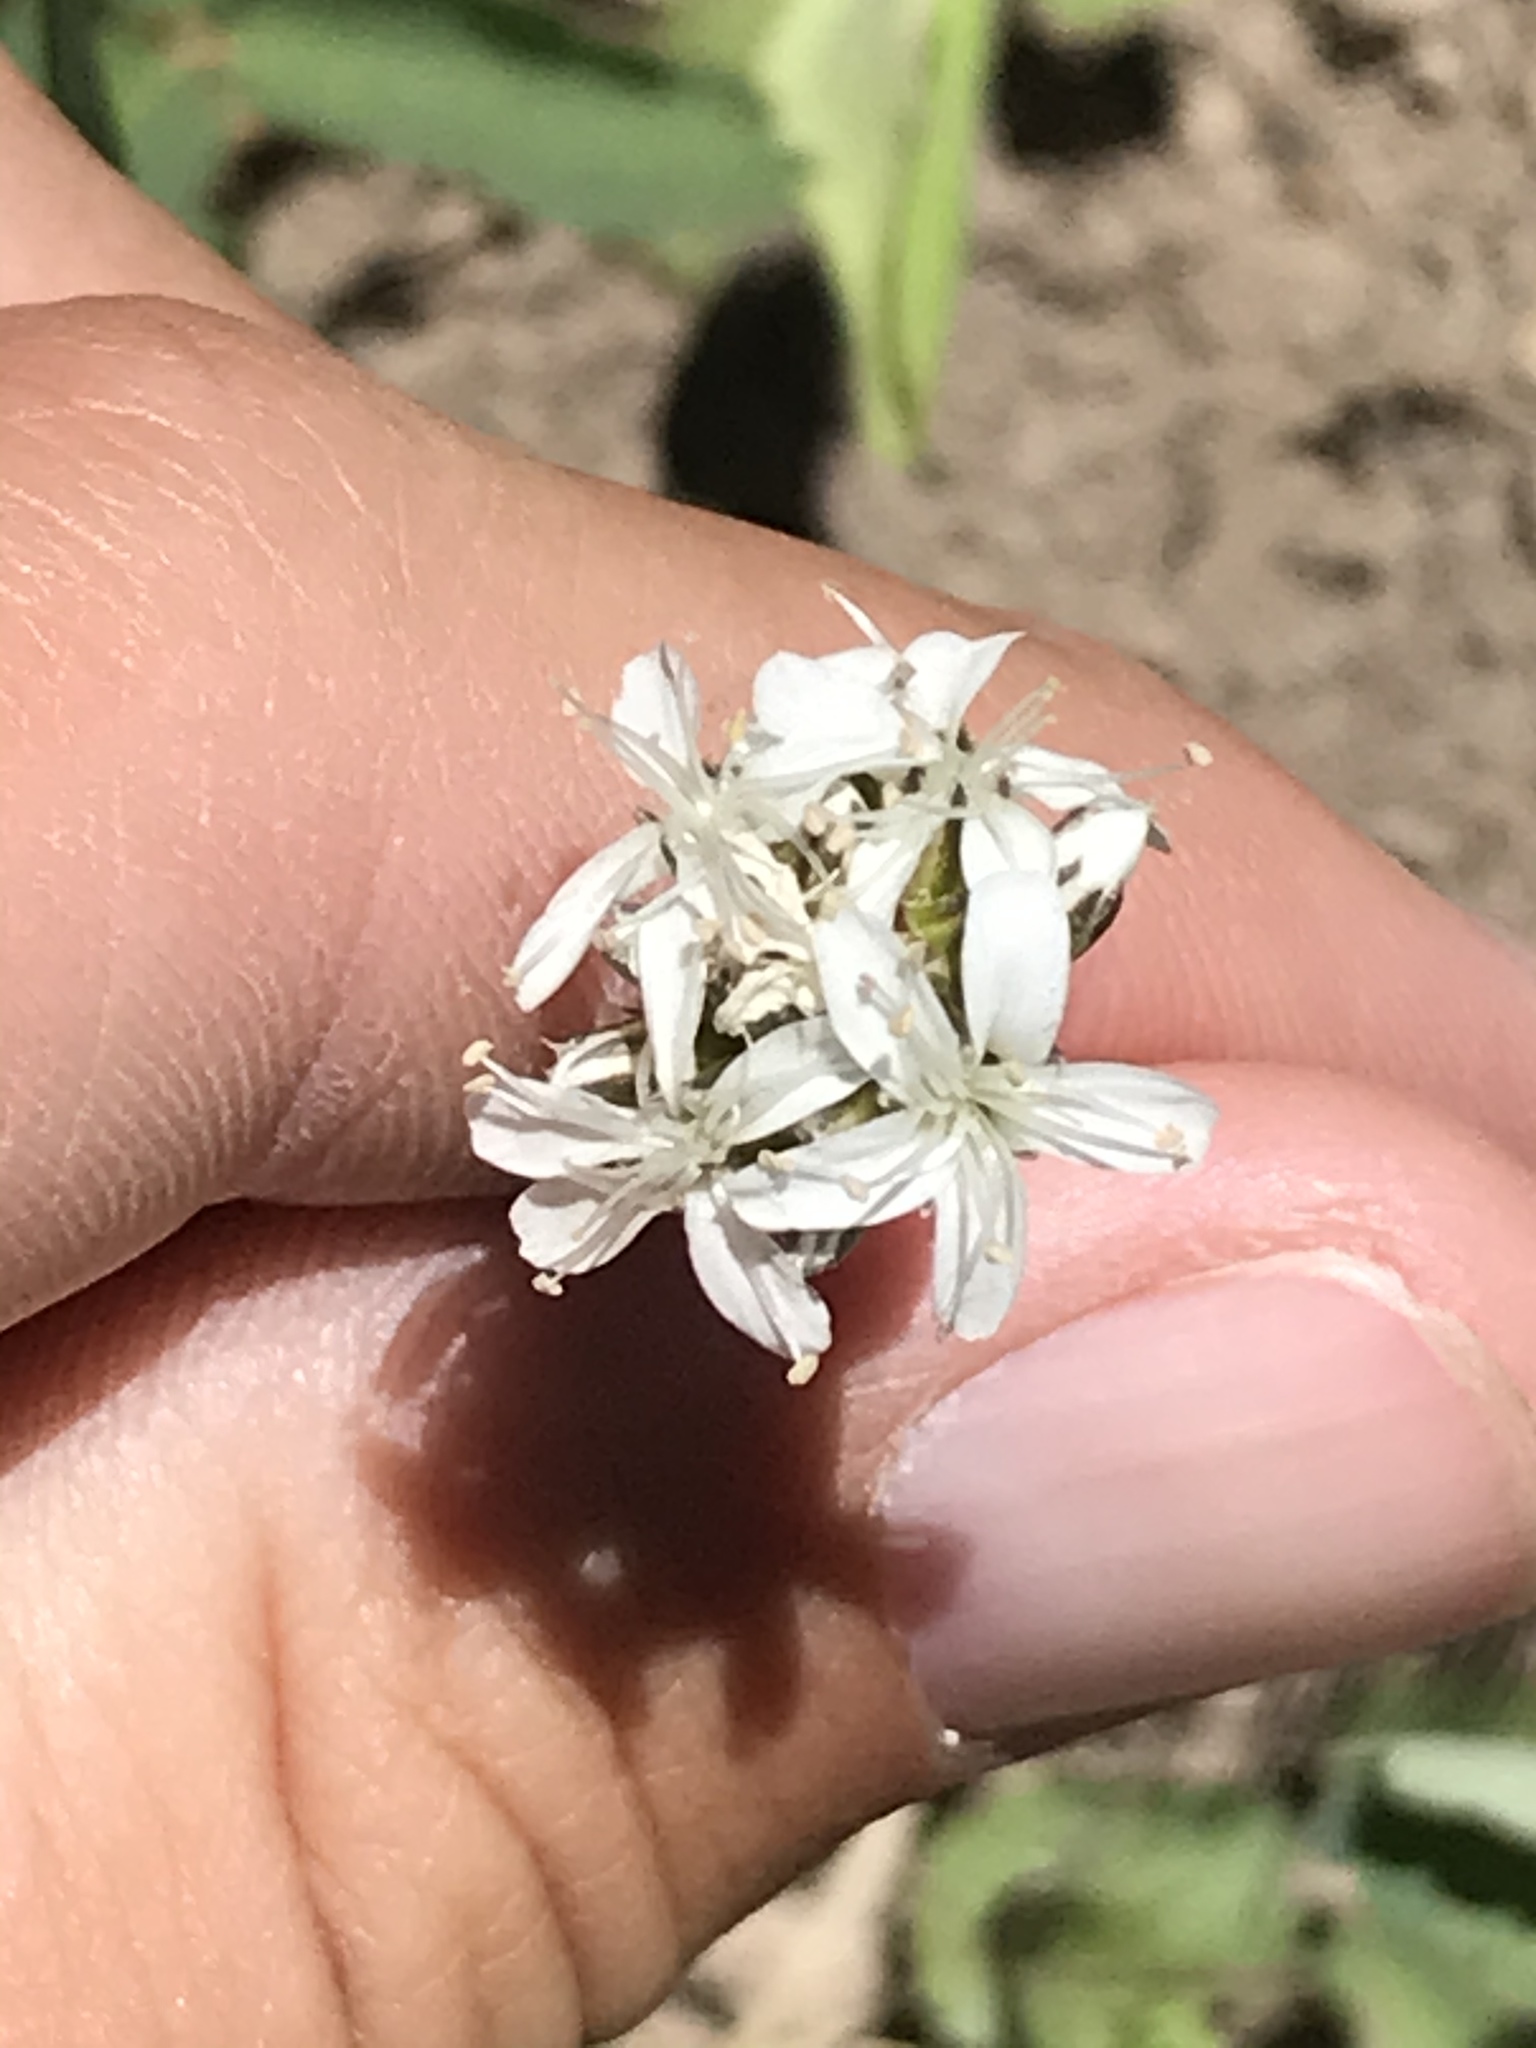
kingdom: Plantae
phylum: Tracheophyta
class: Magnoliopsida
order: Caryophyllales
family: Caryophyllaceae
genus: Eremogone
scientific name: Eremogone congesta
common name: Ballhead sandwort
